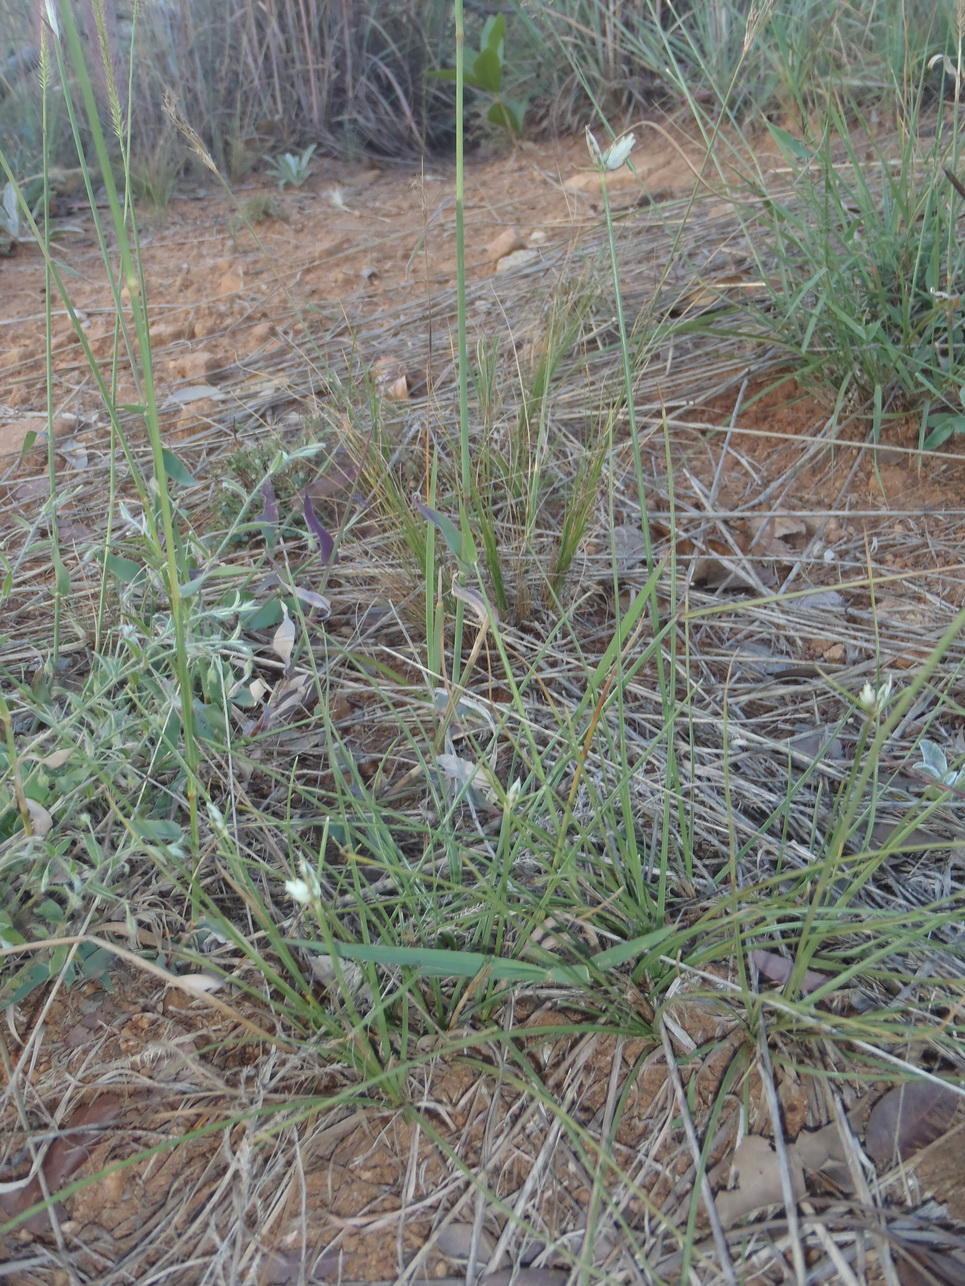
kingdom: Plantae
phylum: Tracheophyta
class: Liliopsida
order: Poales
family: Cyperaceae
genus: Cyperus
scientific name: Cyperus margaritaceus
